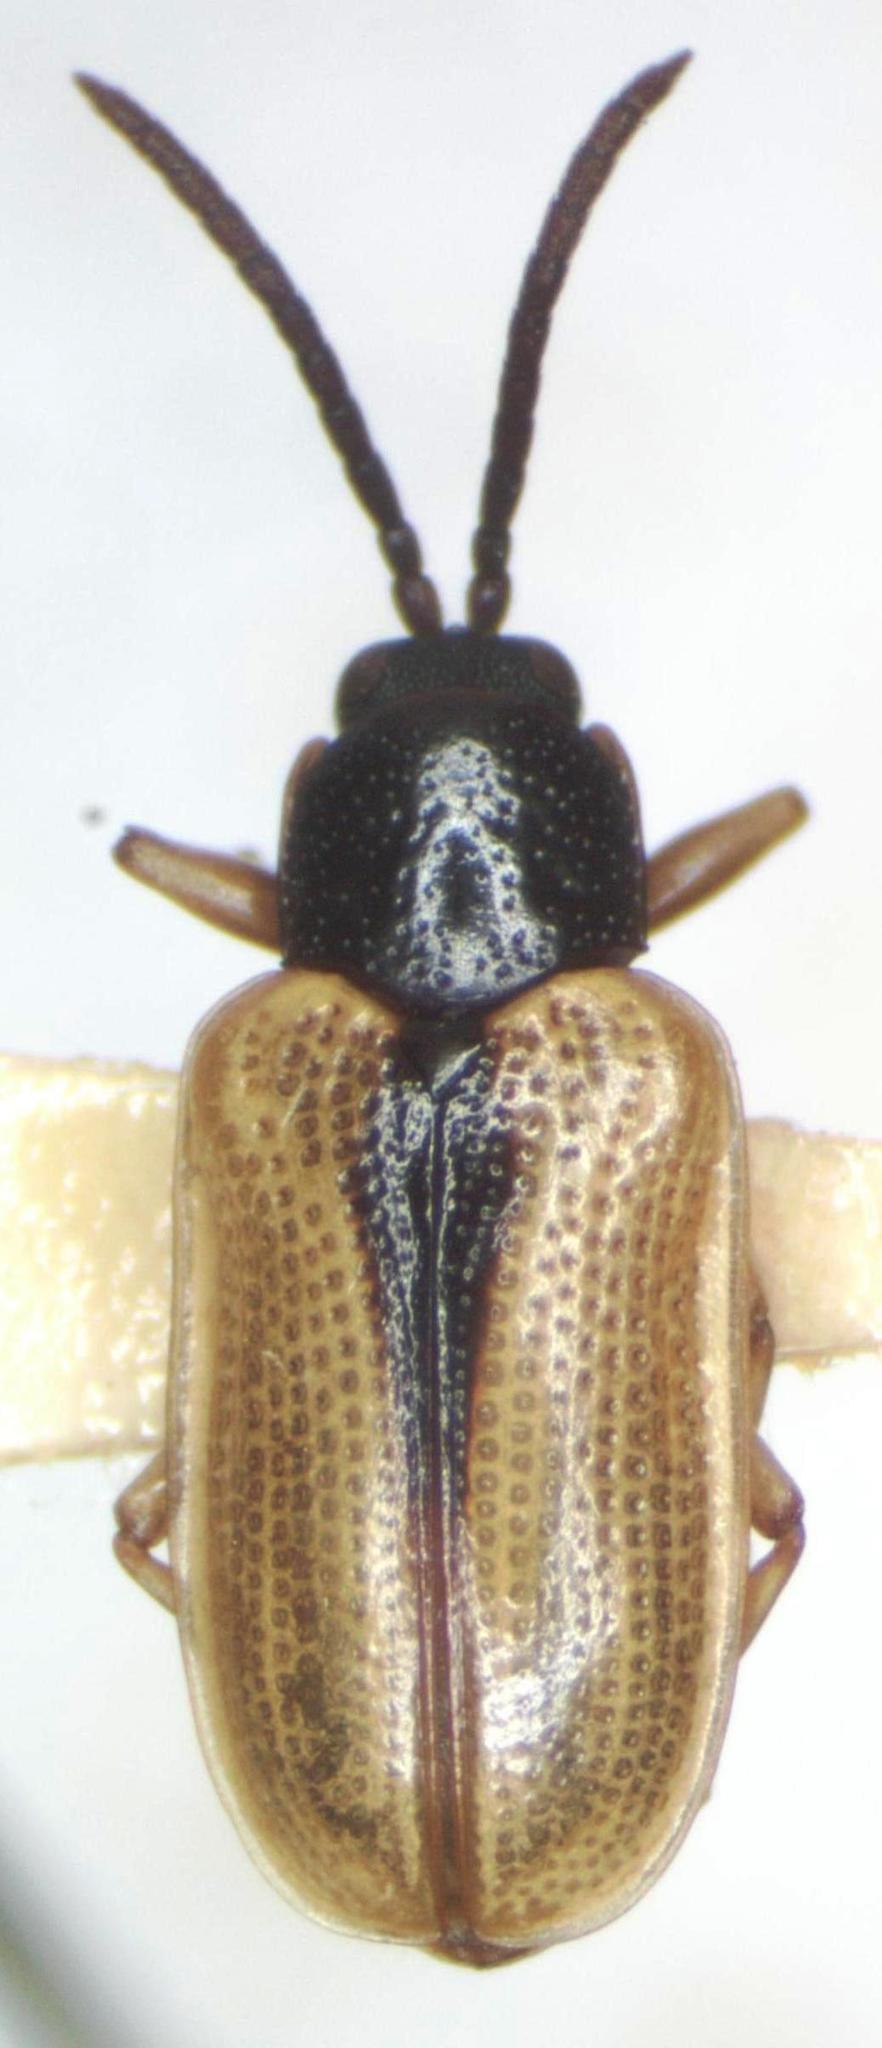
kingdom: Animalia
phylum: Arthropoda
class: Insecta
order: Coleoptera
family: Chrysomelidae
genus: Cephaloleia
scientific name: Cephaloleia suturalis
